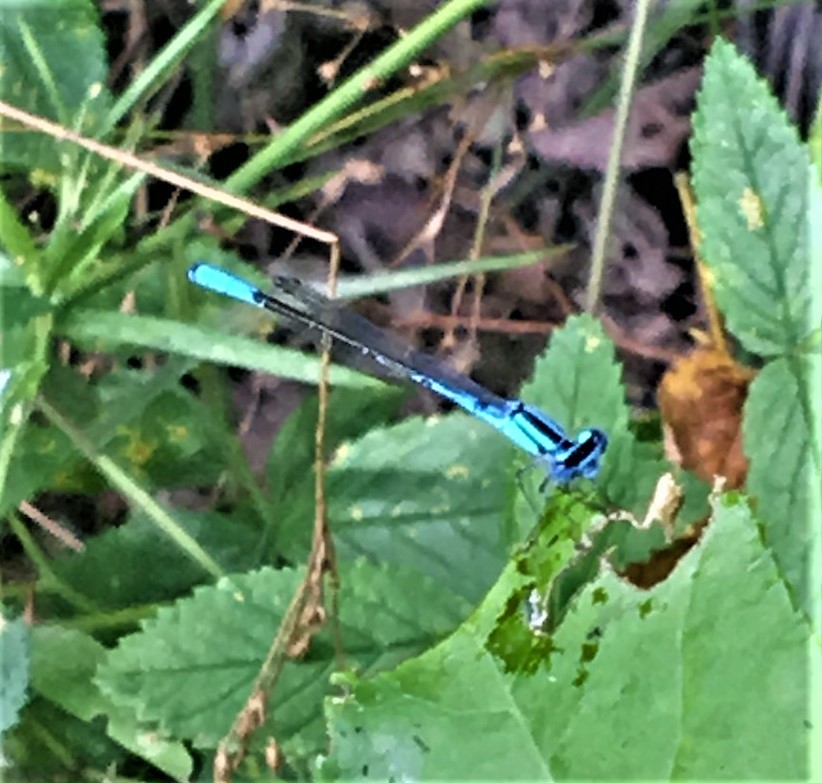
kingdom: Animalia
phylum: Arthropoda
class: Insecta
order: Odonata
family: Coenagrionidae
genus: Enallagma
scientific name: Enallagma aspersum
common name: Azure bluet
